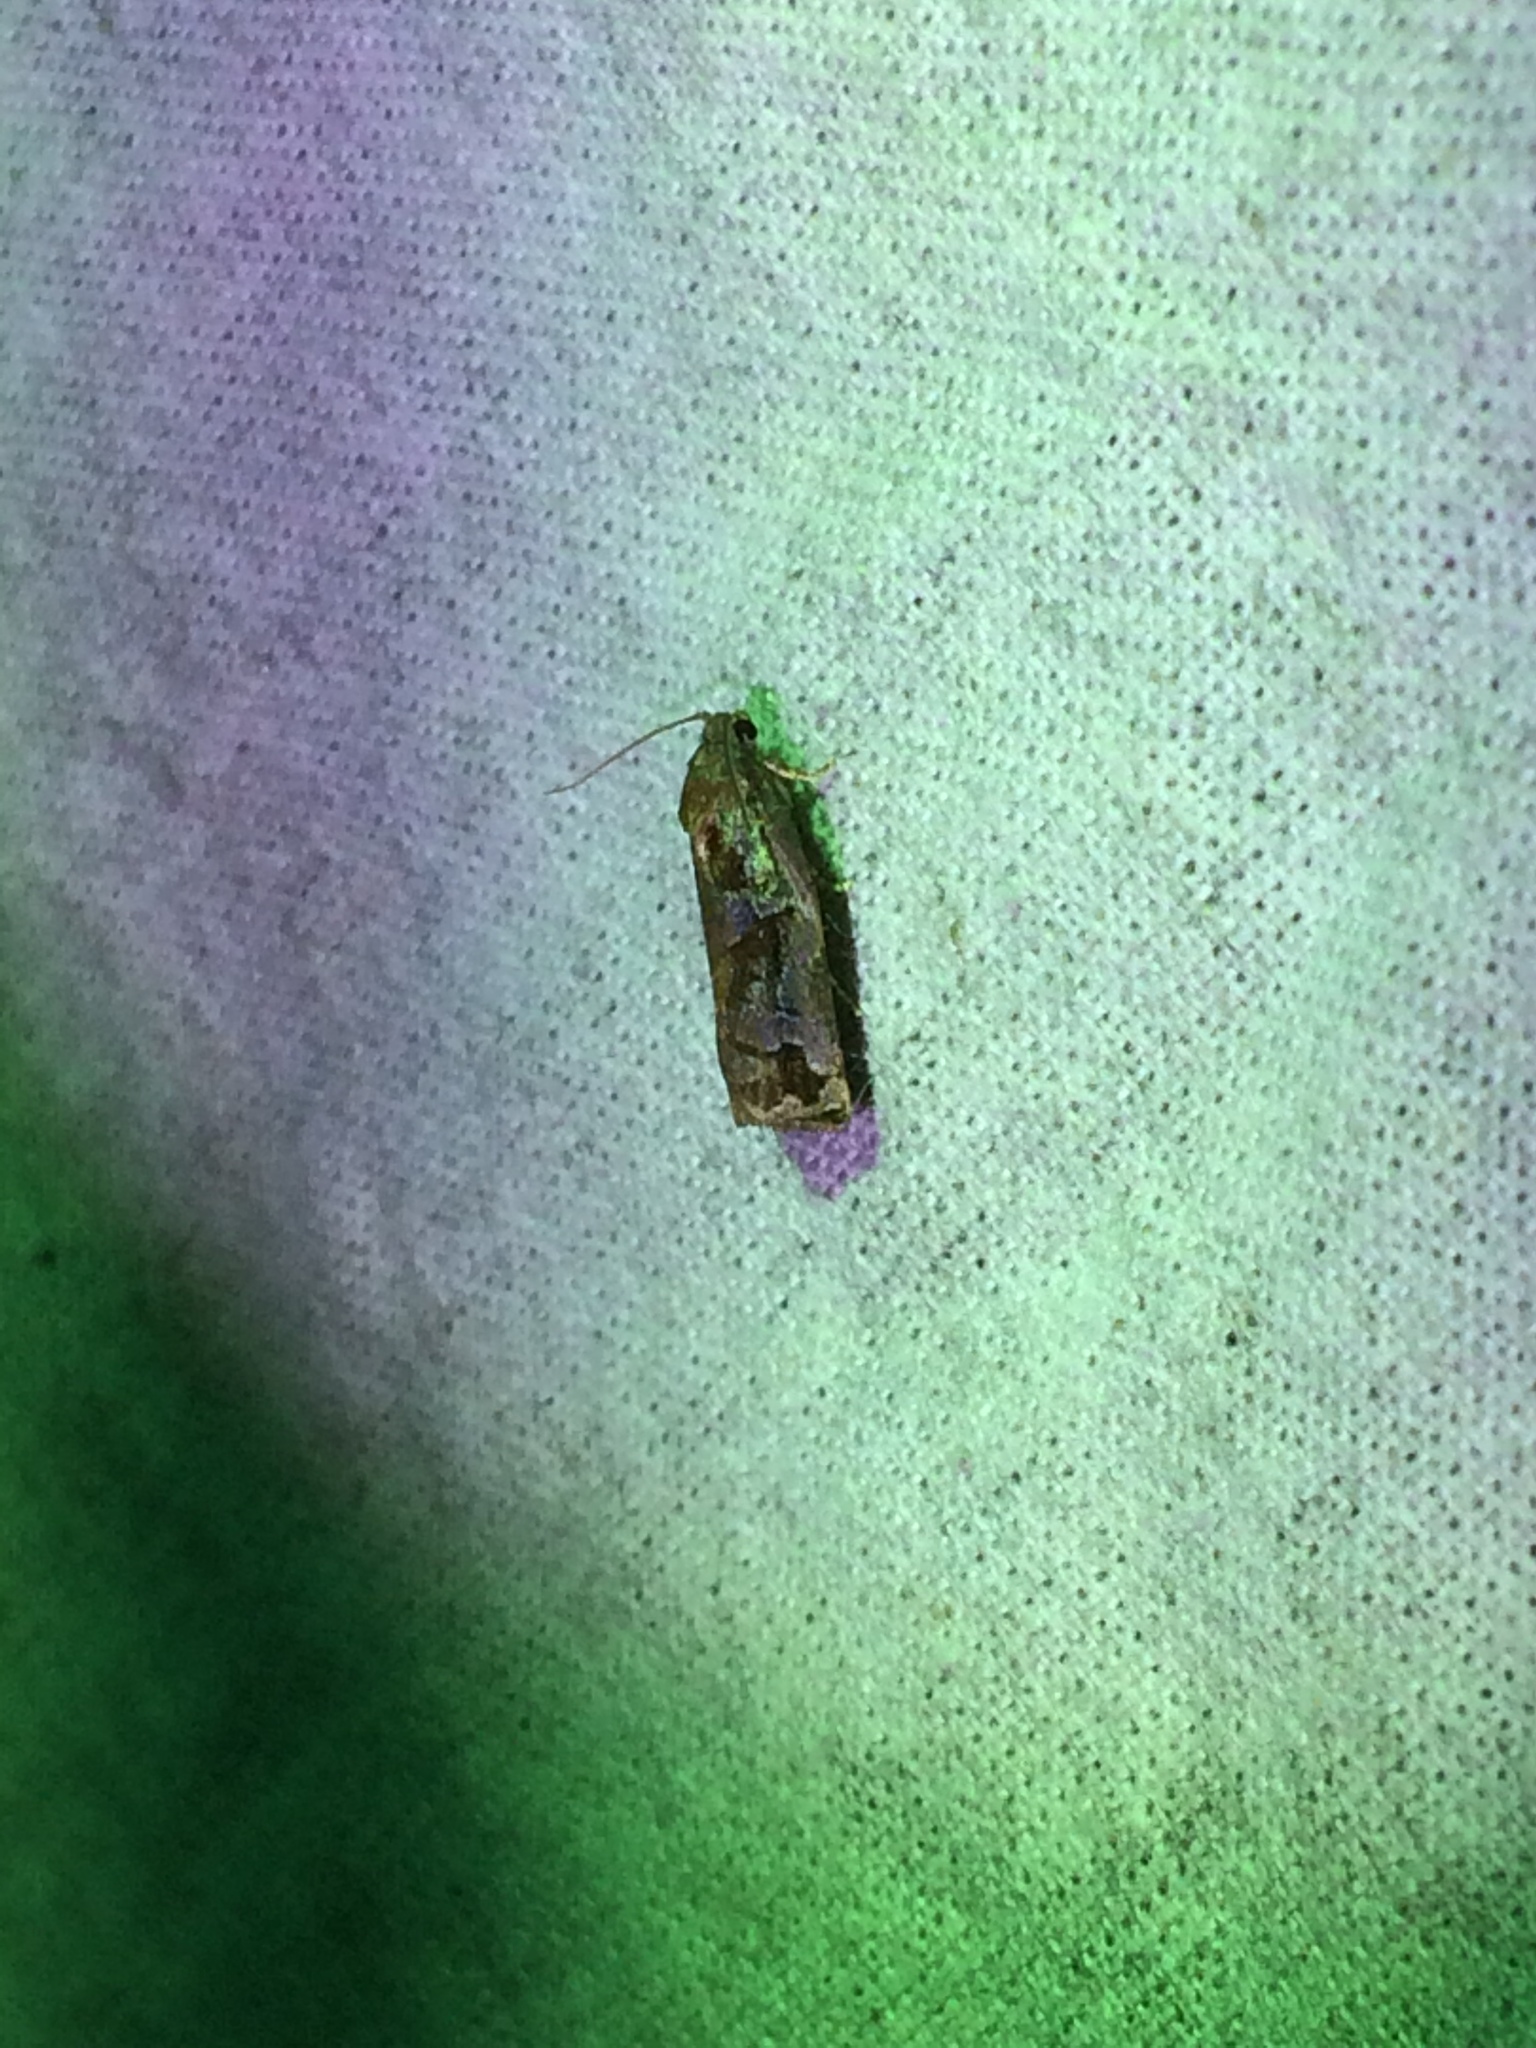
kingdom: Animalia
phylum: Arthropoda
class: Insecta
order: Lepidoptera
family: Tortricidae
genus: Archips
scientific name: Archips oporana
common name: Sprice tortrix moth
